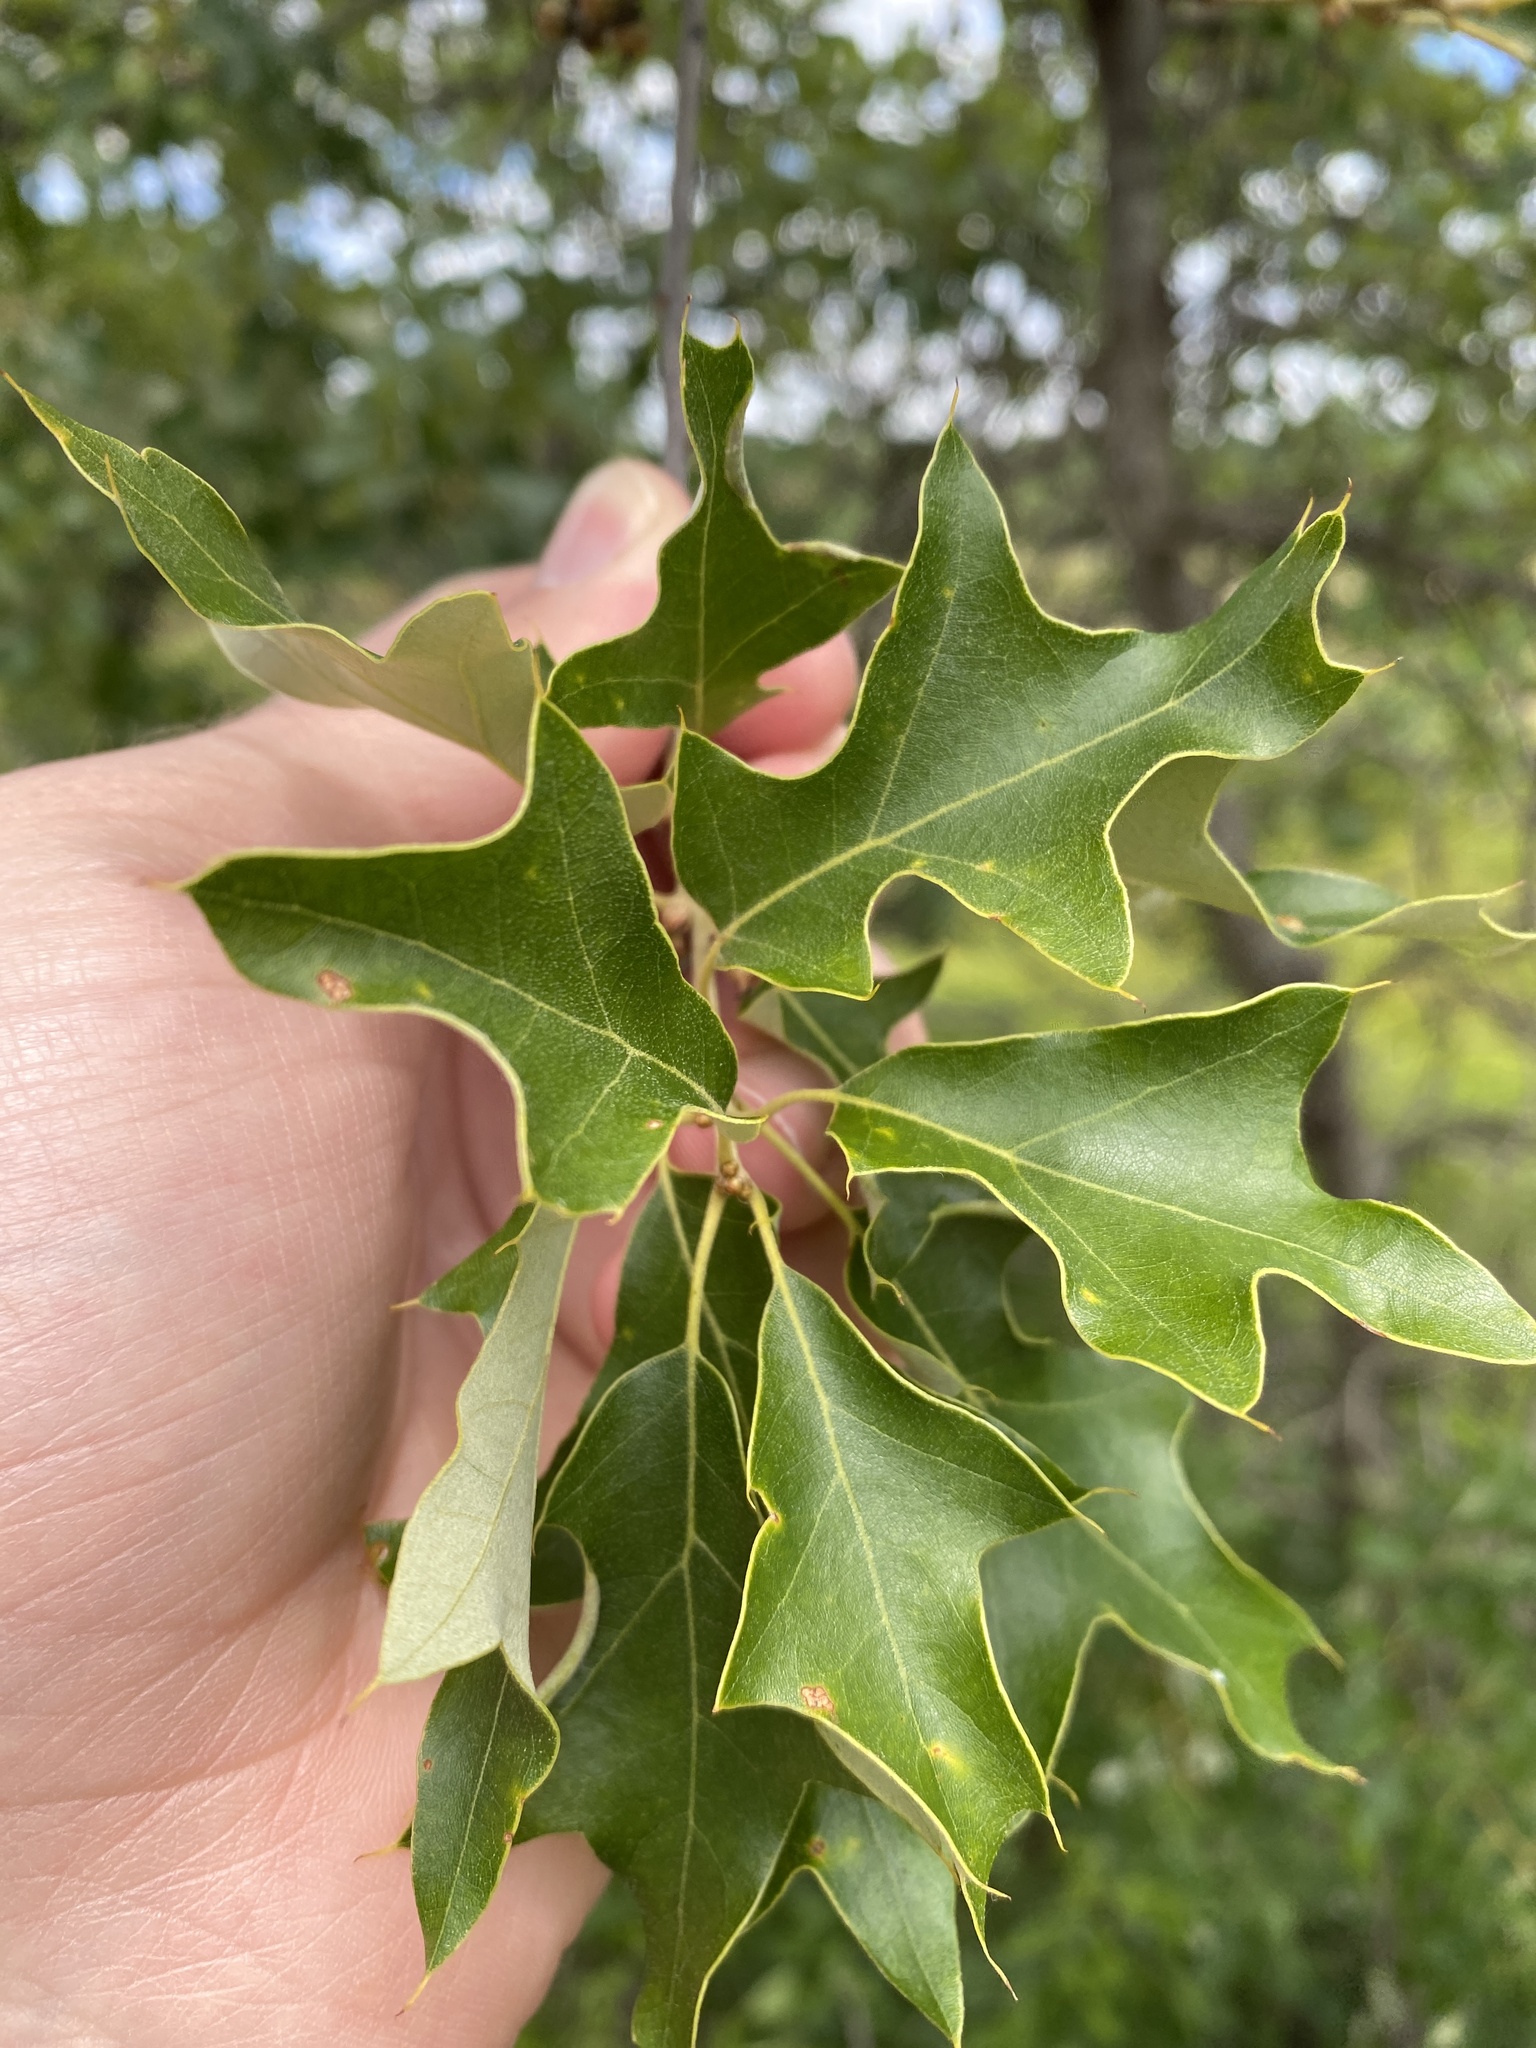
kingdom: Plantae
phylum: Tracheophyta
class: Magnoliopsida
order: Fagales
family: Fagaceae
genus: Quercus
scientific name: Quercus ilicifolia
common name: Bear oak
